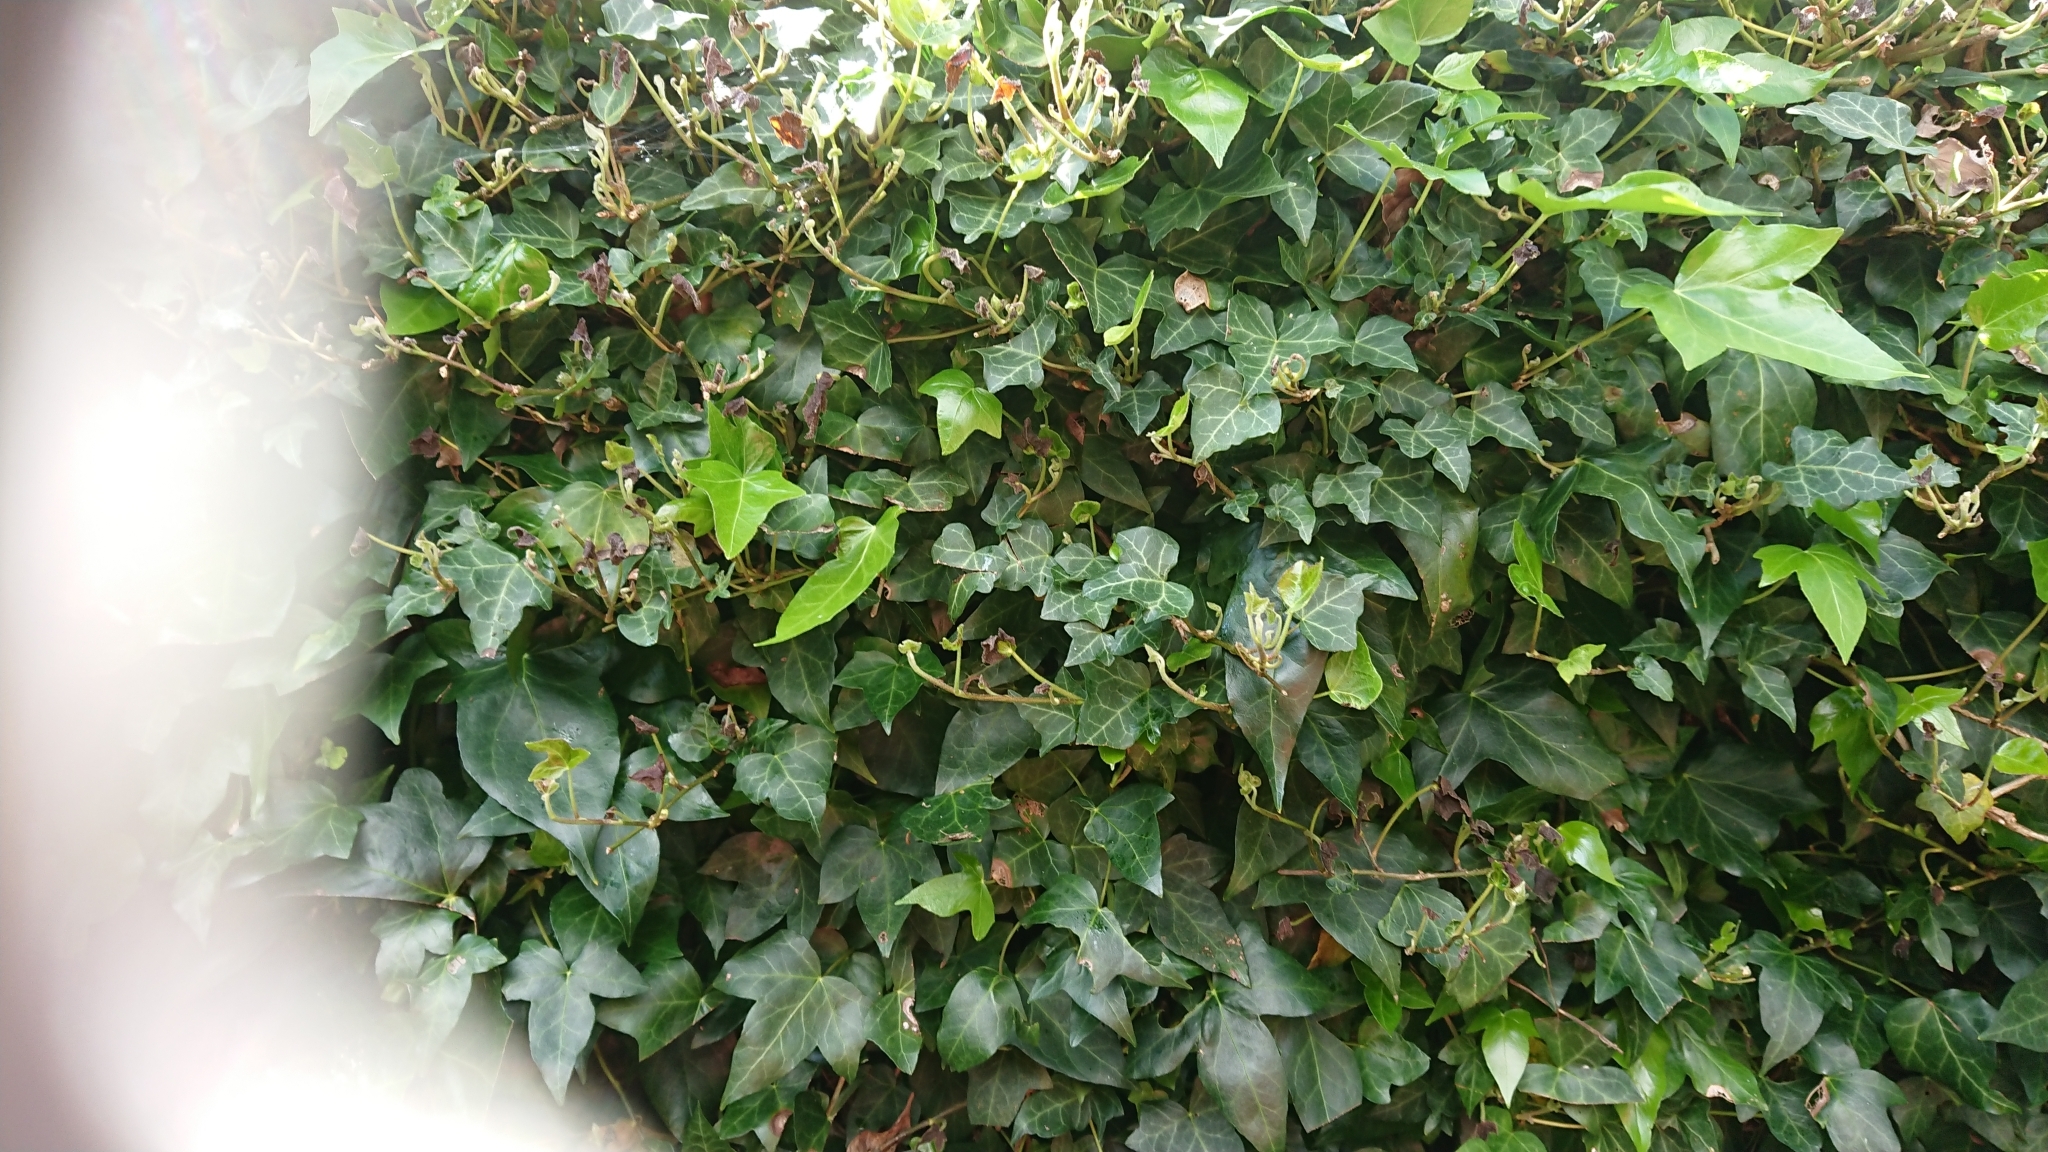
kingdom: Plantae
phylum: Tracheophyta
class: Magnoliopsida
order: Apiales
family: Araliaceae
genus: Hedera
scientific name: Hedera helix
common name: Ivy
